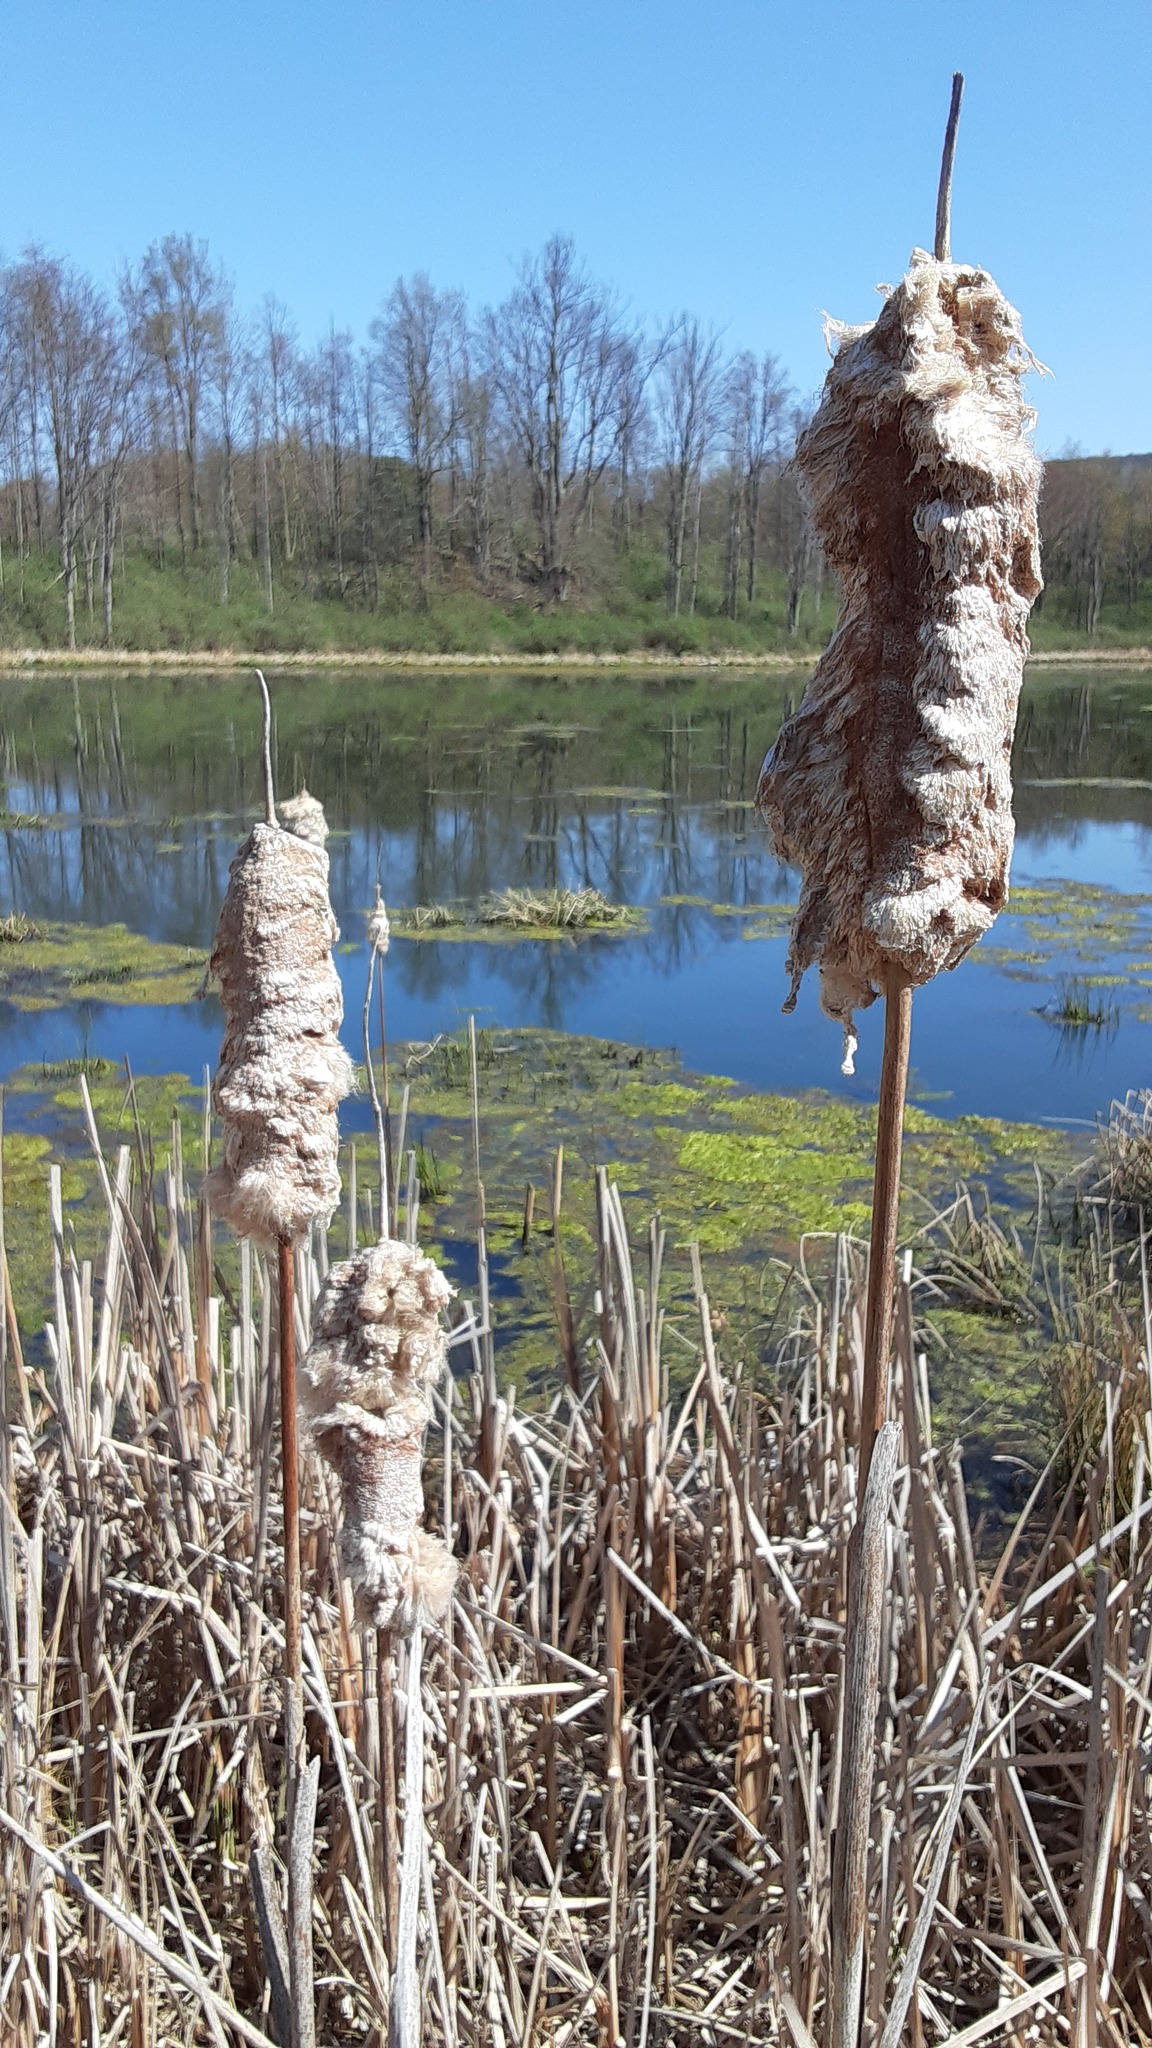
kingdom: Plantae
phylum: Tracheophyta
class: Liliopsida
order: Poales
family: Typhaceae
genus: Typha
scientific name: Typha
